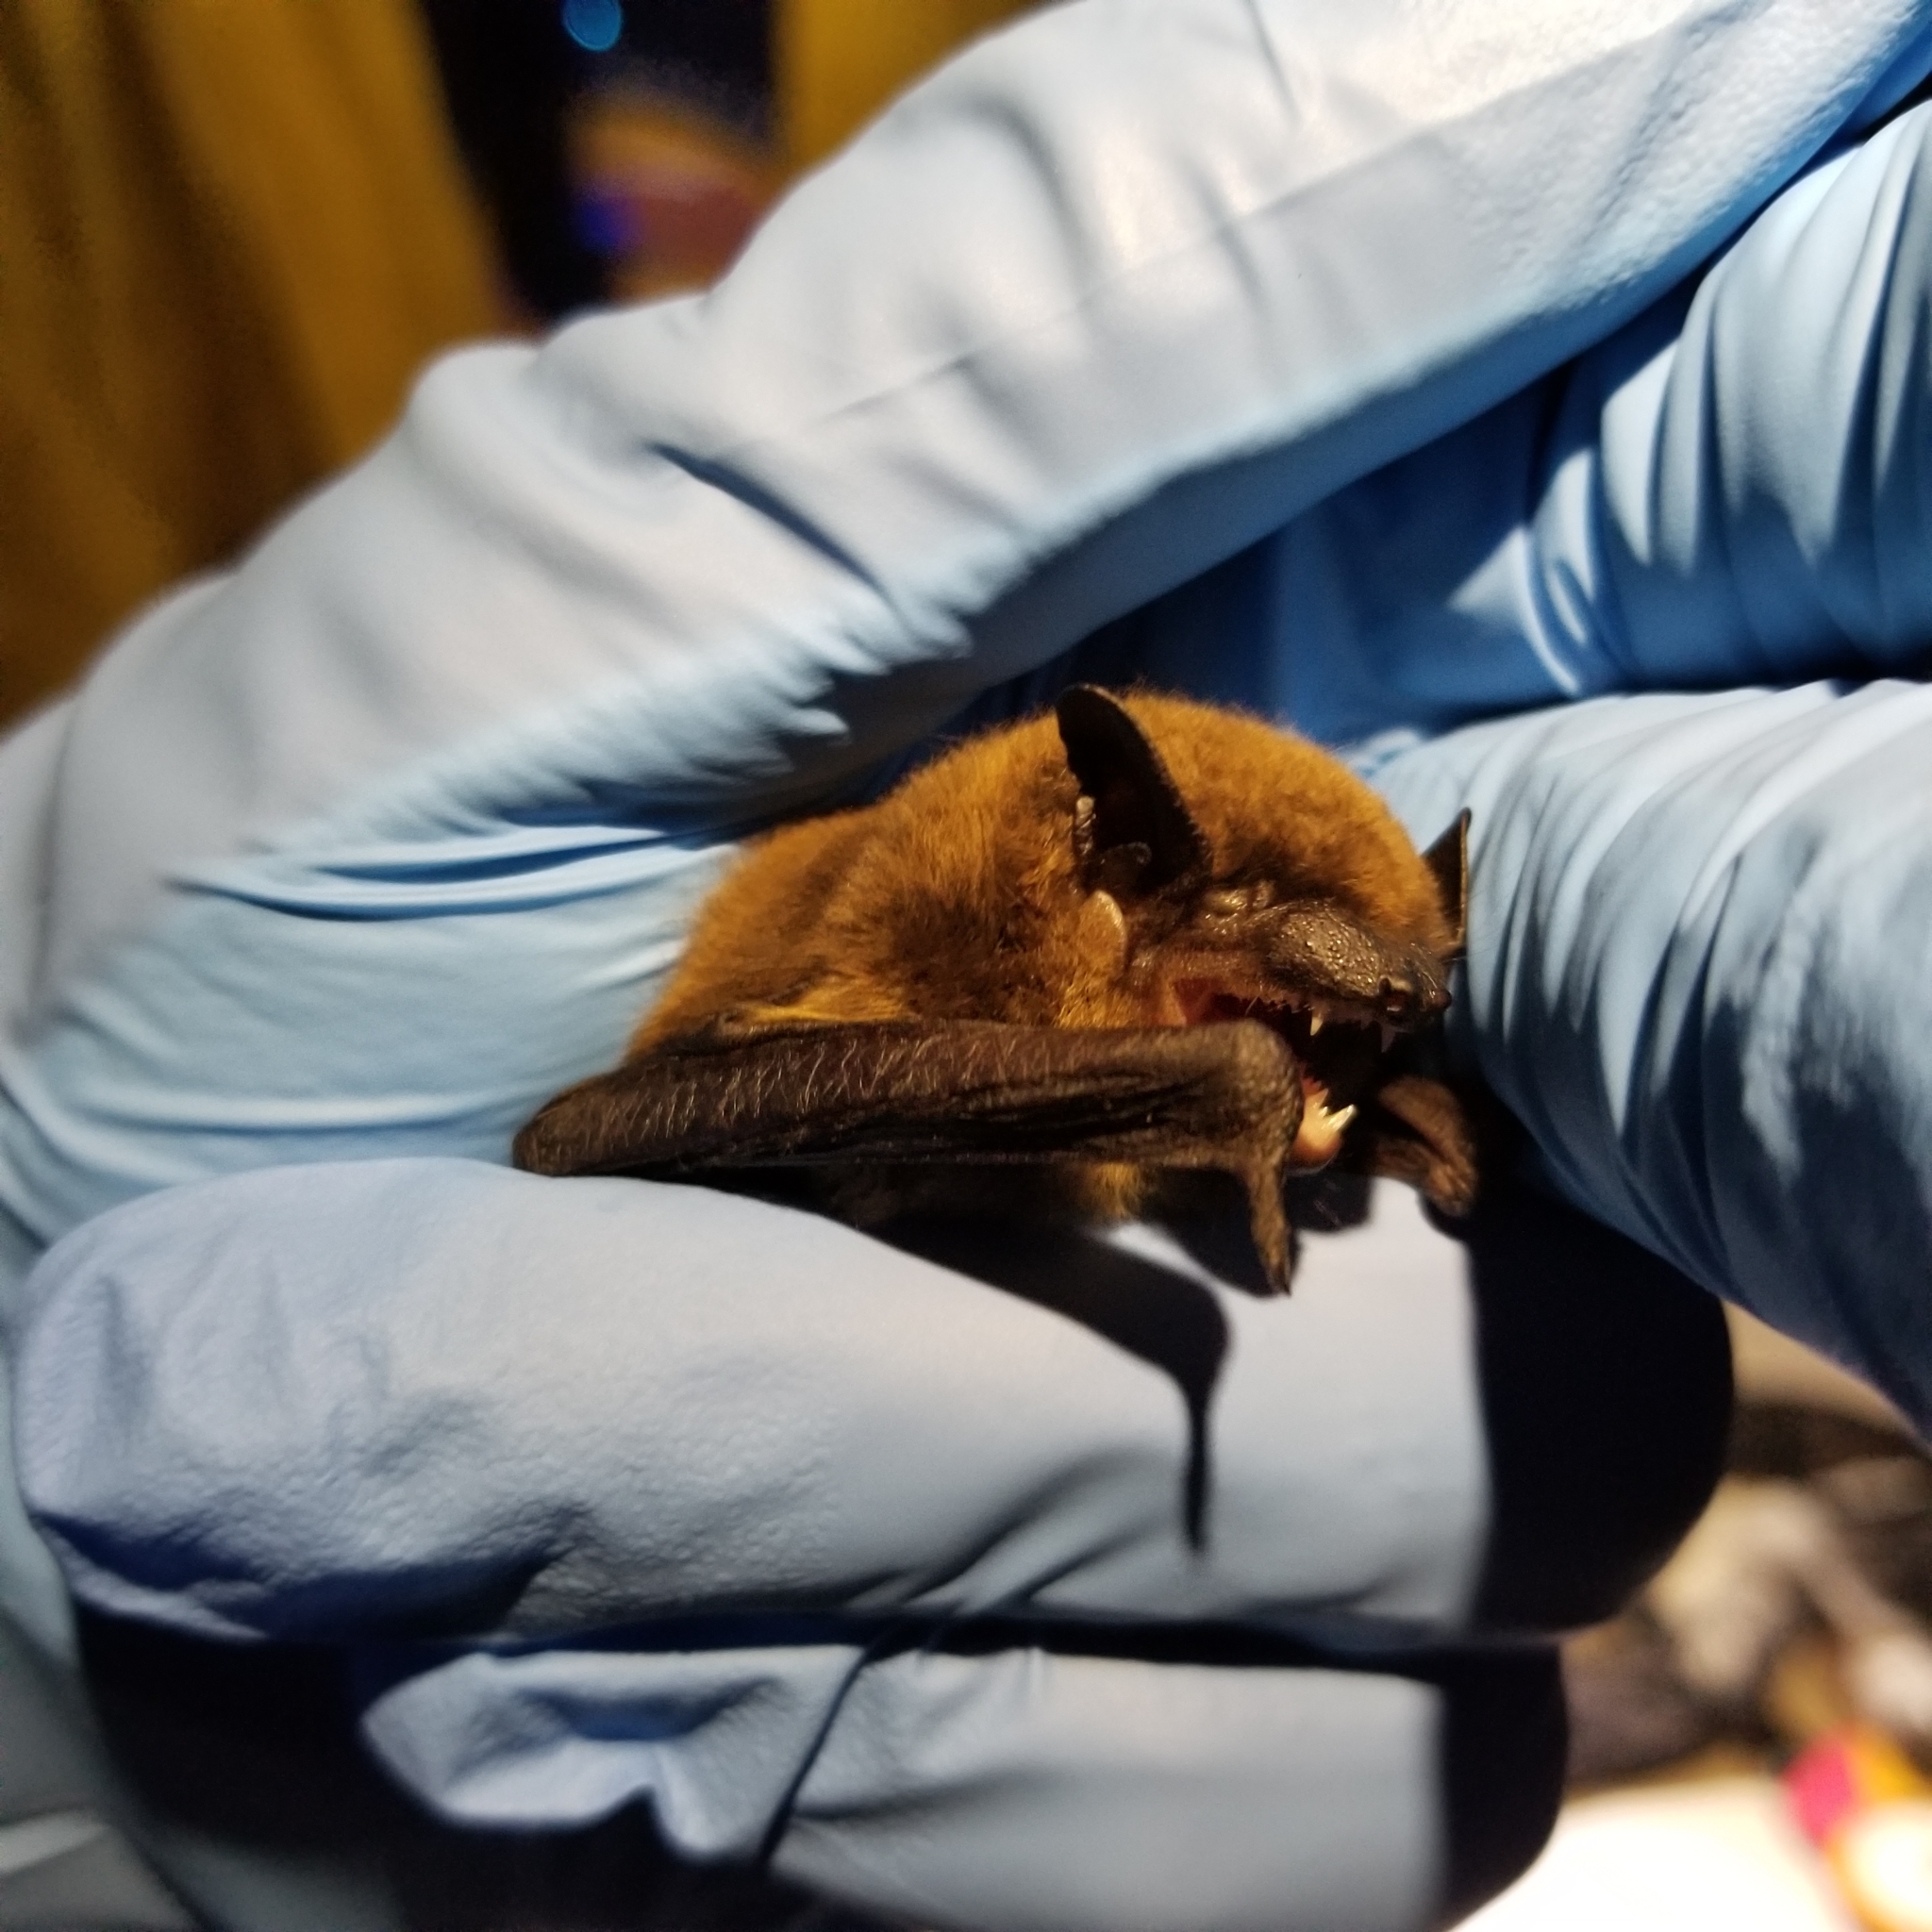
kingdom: Animalia
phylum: Chordata
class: Mammalia
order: Chiroptera
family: Vespertilionidae
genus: Nycticeius
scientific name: Nycticeius humeralis
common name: Evening bat
